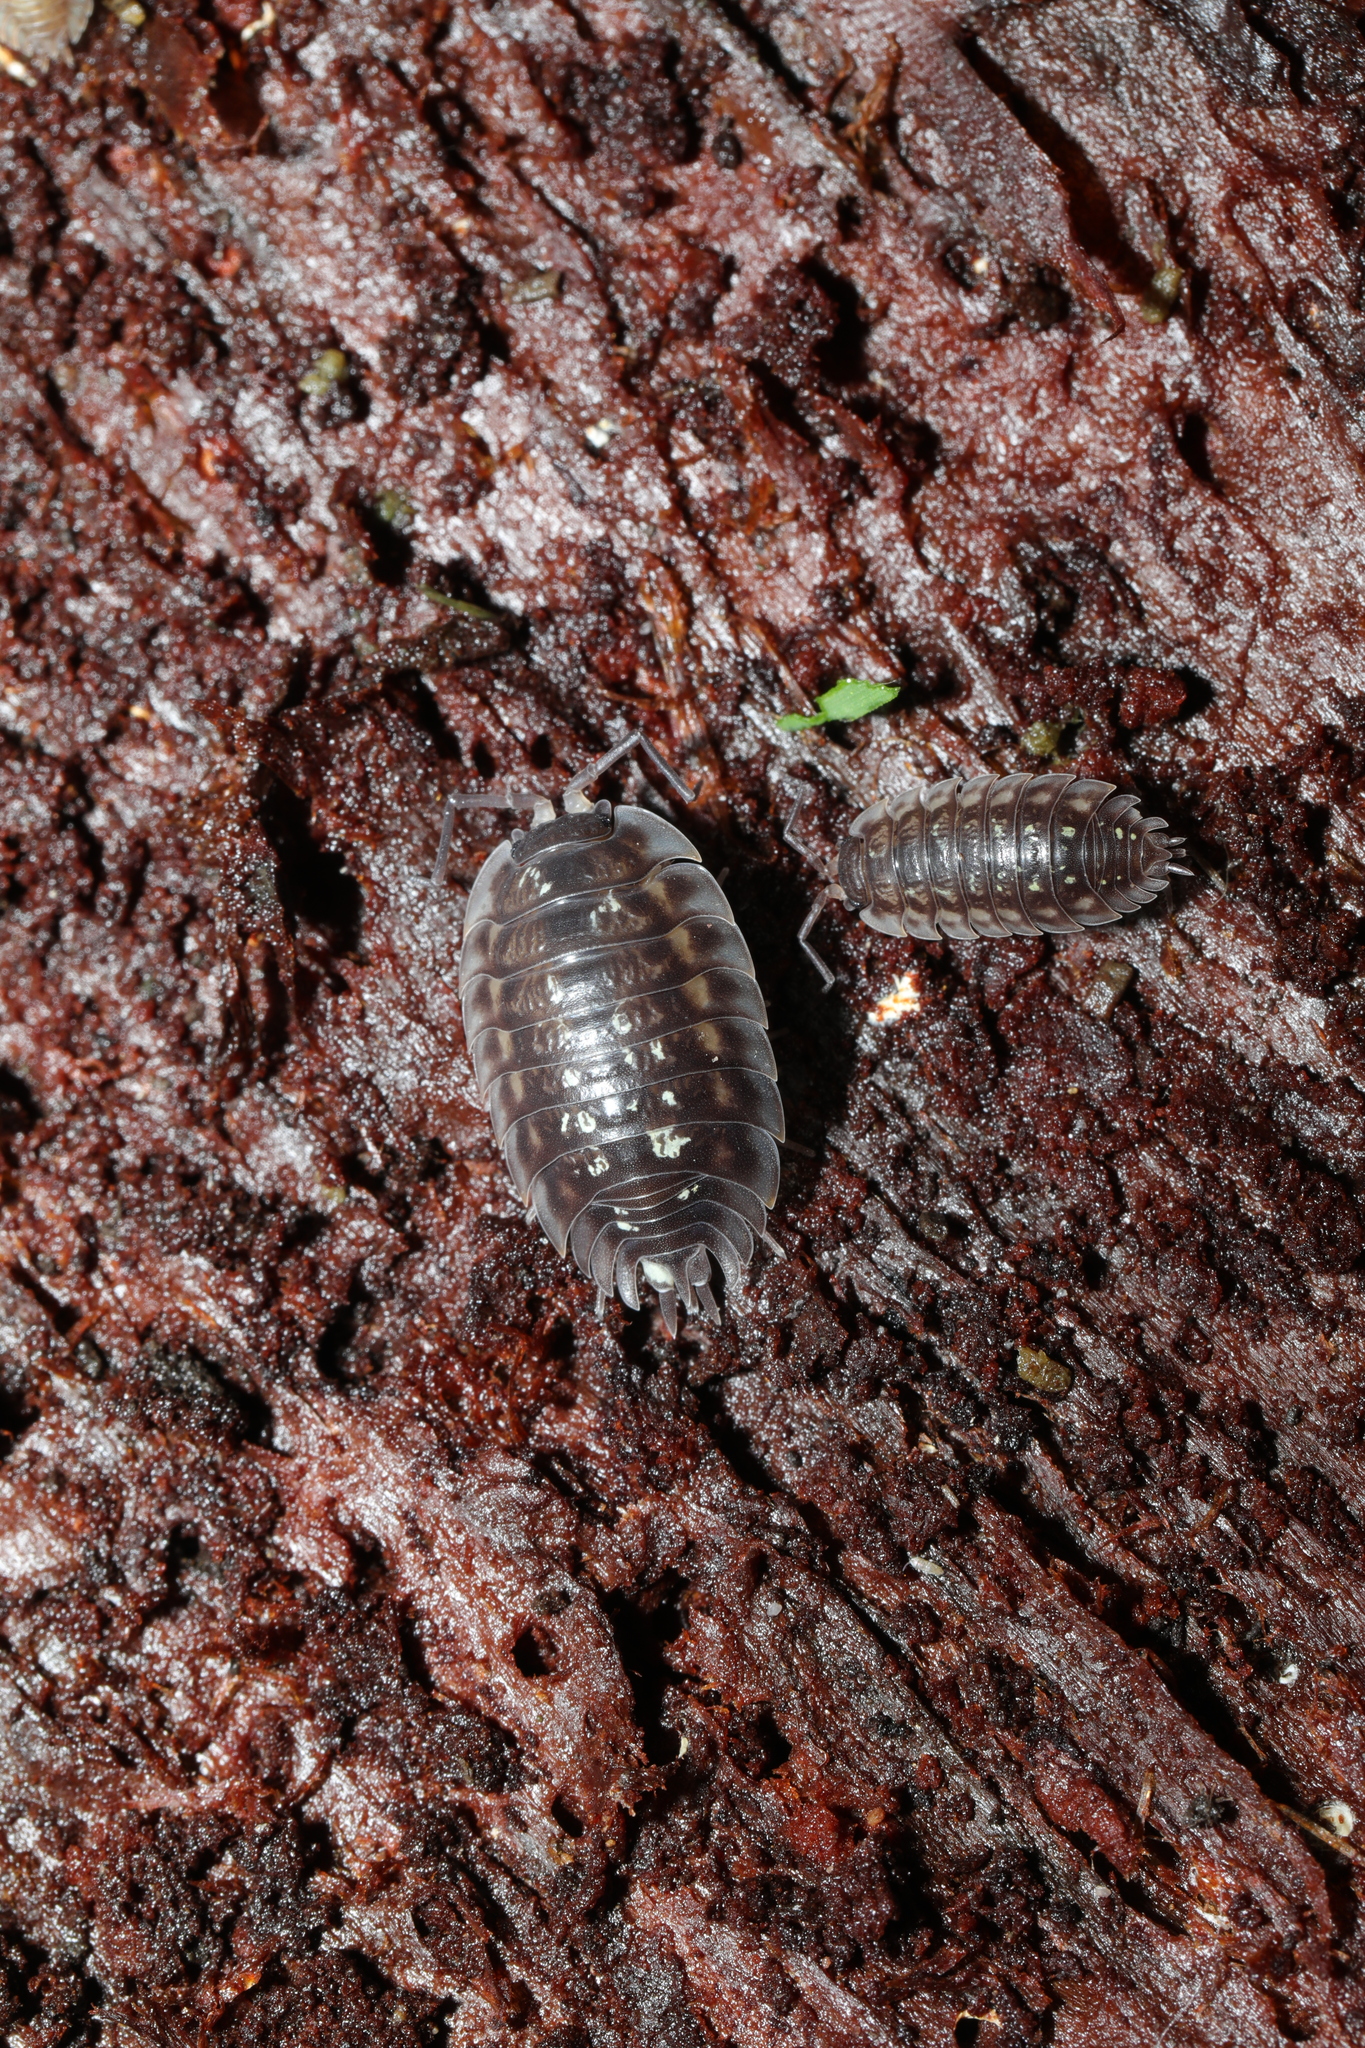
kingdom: Animalia
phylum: Arthropoda
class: Malacostraca
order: Isopoda
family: Oniscidae
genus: Oniscus
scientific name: Oniscus asellus
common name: Common shiny woodlouse
